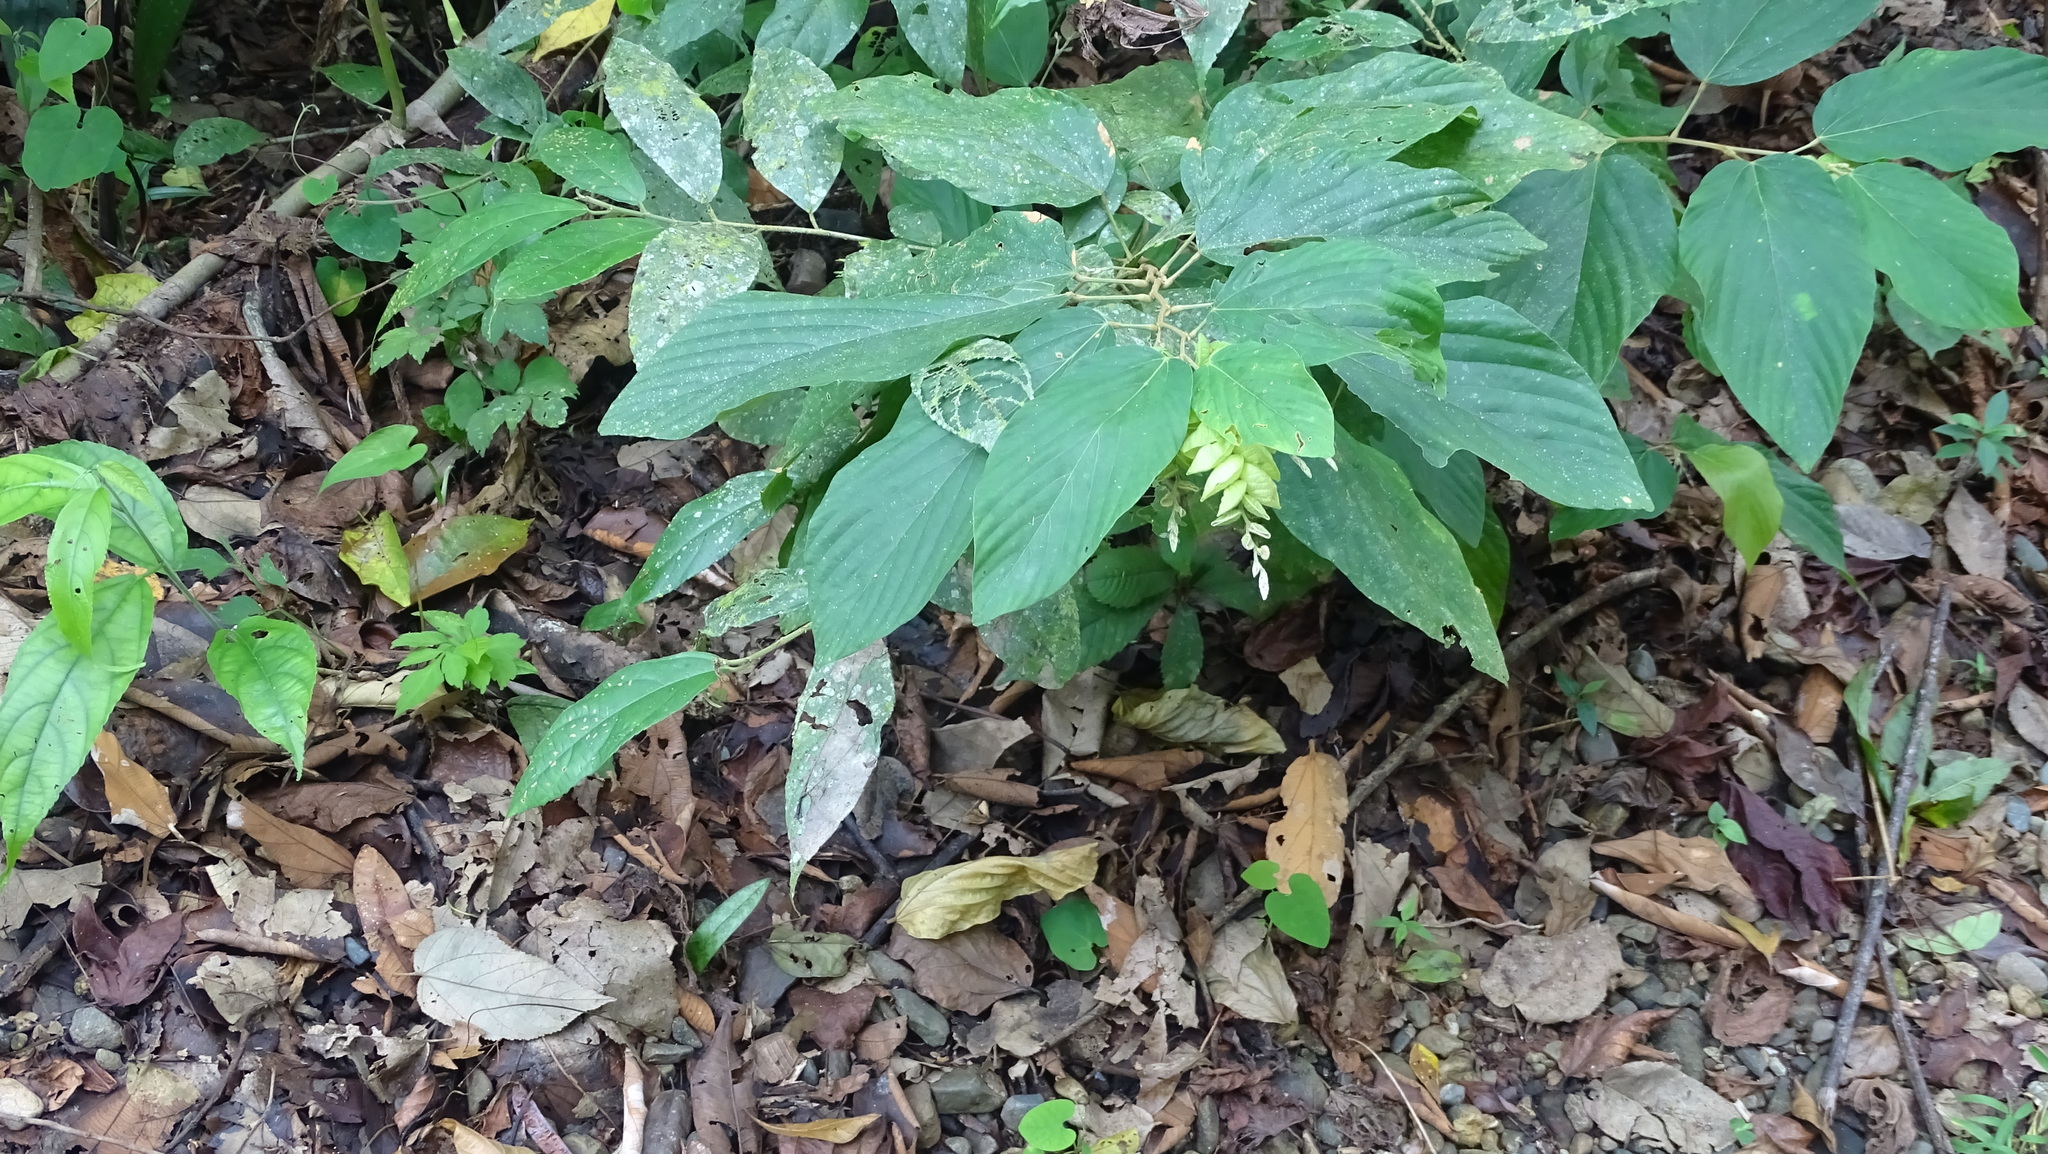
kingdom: Plantae
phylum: Tracheophyta
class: Magnoliopsida
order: Fabales
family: Fabaceae
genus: Flemingia
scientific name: Flemingia strobilifera
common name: Wild hops
